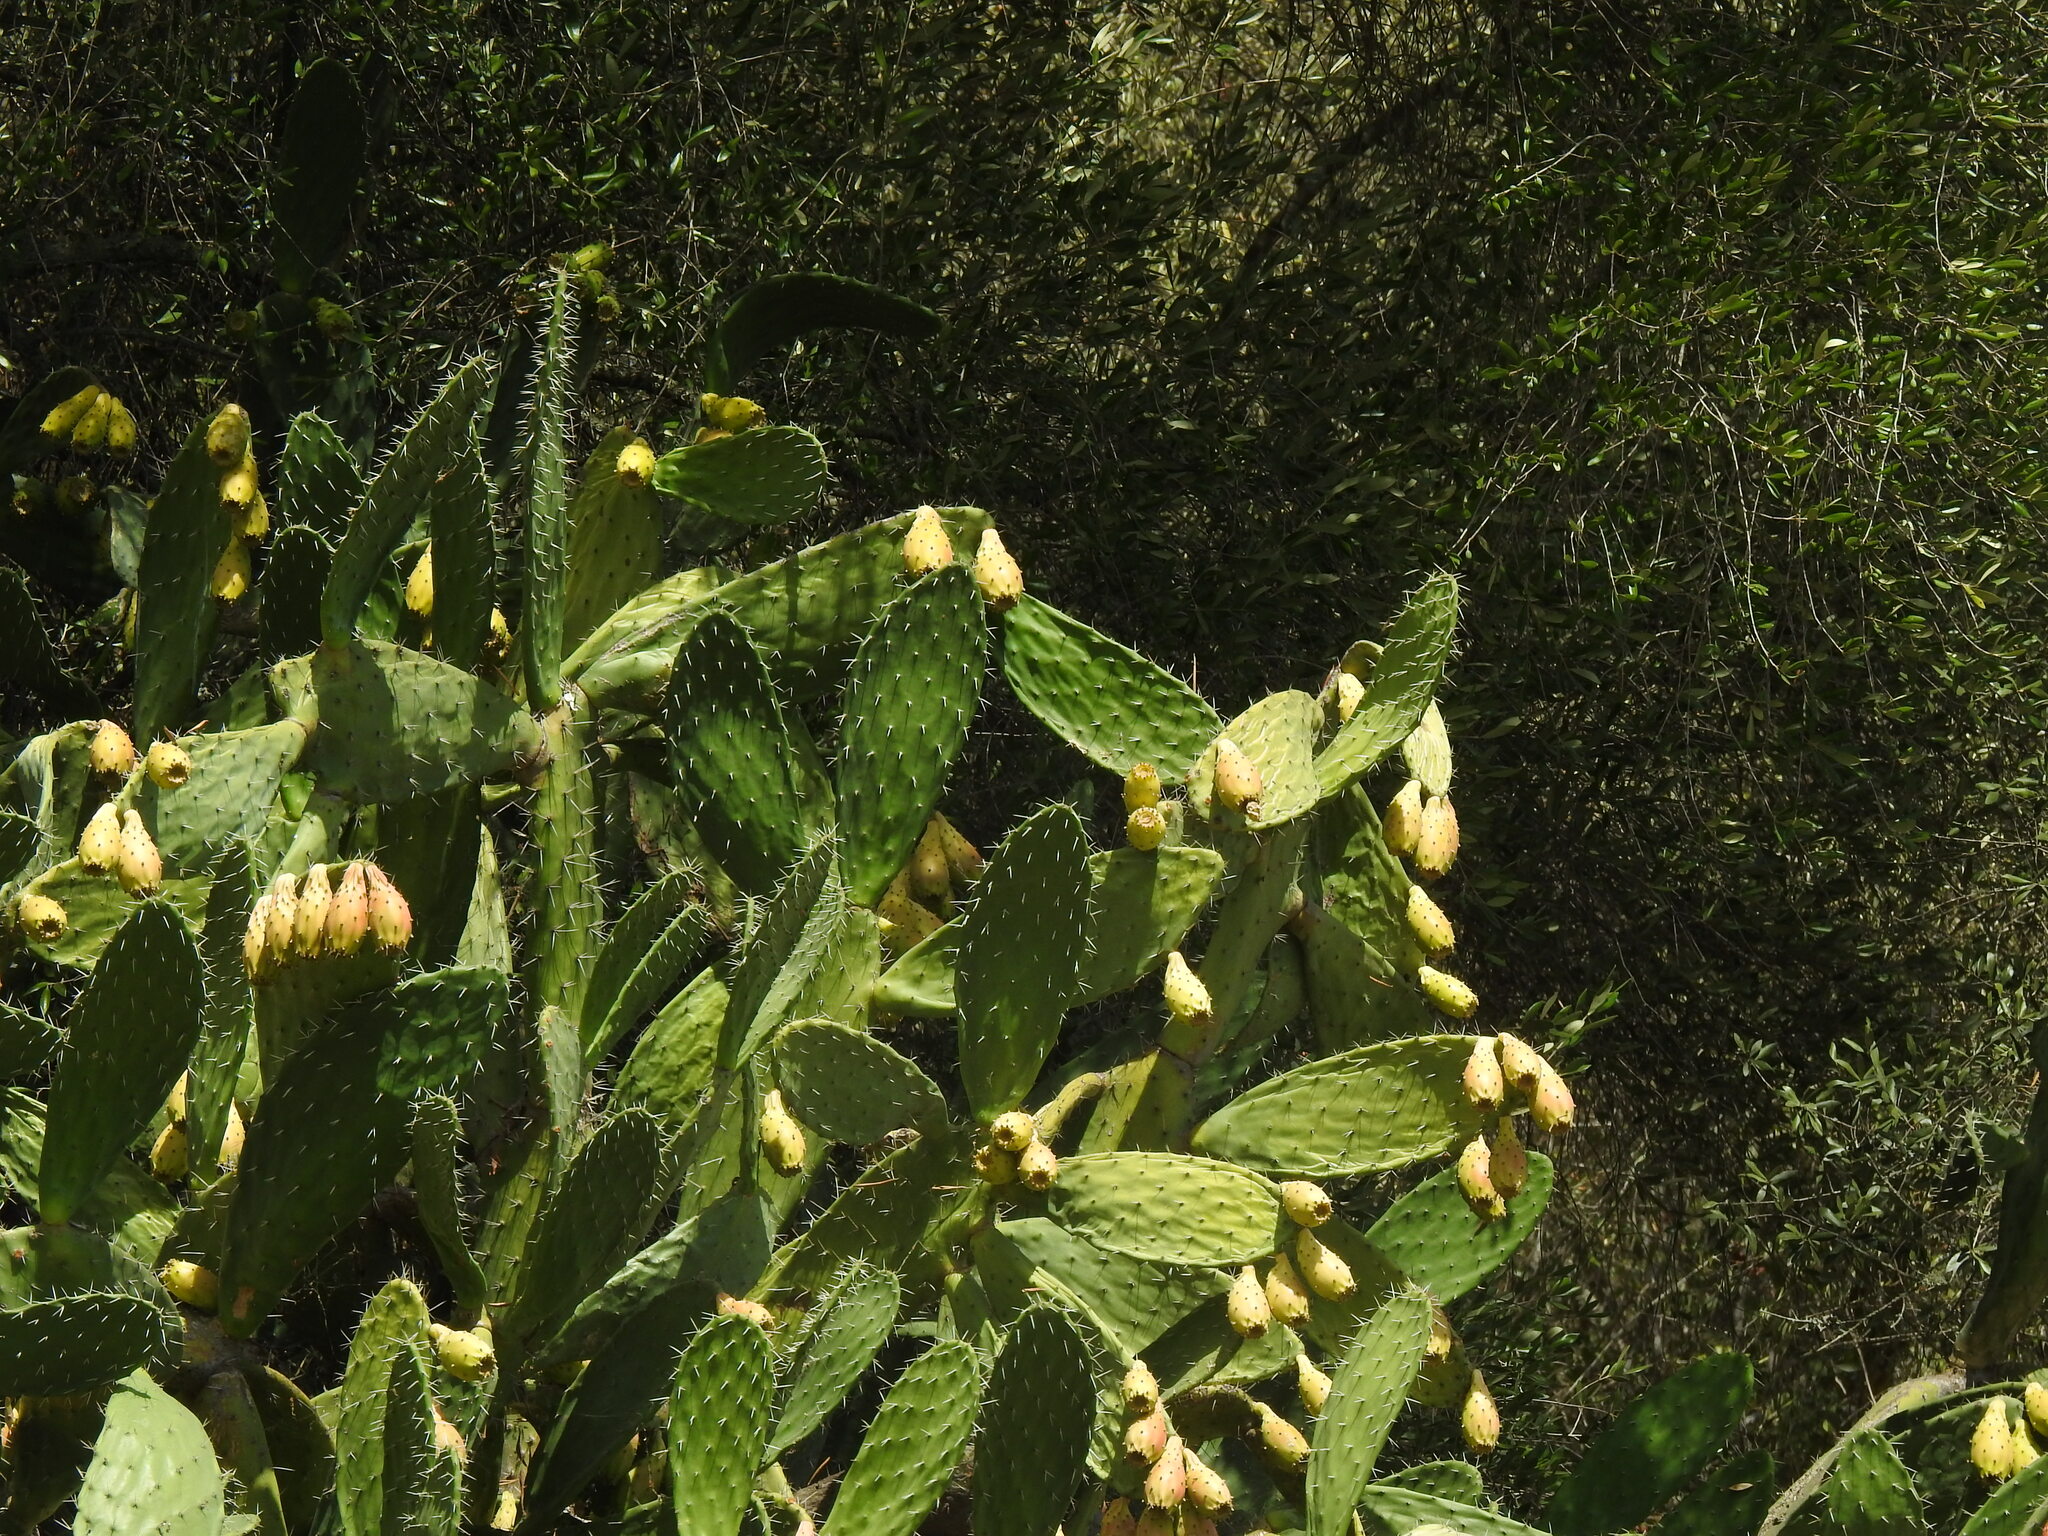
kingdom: Plantae
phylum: Tracheophyta
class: Magnoliopsida
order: Caryophyllales
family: Cactaceae
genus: Opuntia
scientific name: Opuntia ficus-indica
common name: Barbary fig
